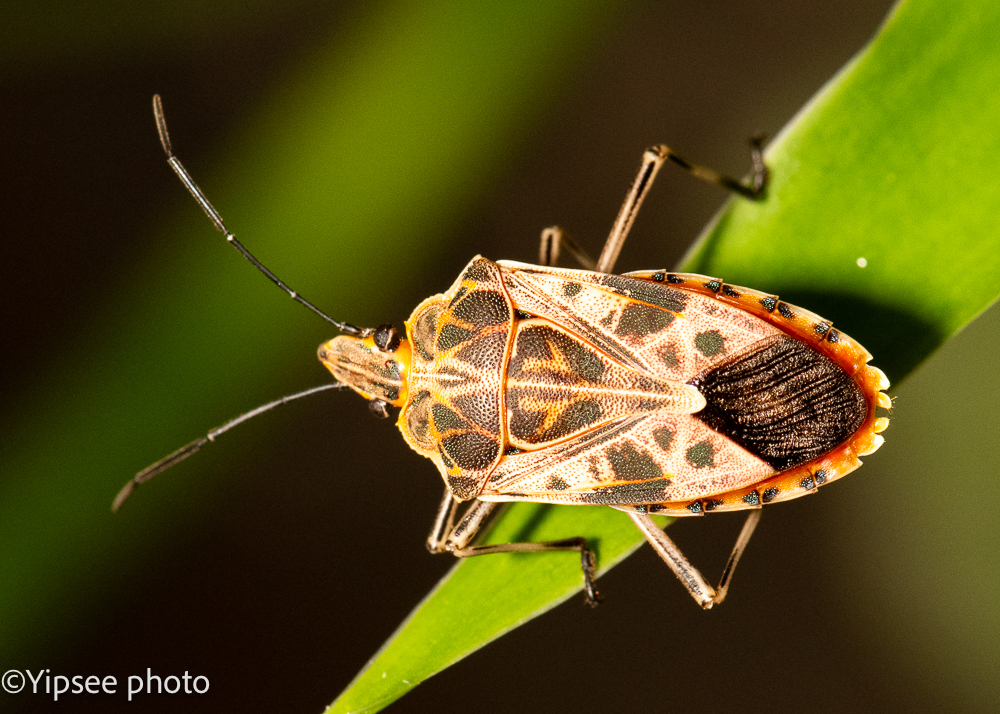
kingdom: Animalia
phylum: Arthropoda
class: Insecta
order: Hemiptera
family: Pentatomidae
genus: Agaeus
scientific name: Agaeus tessellatus
